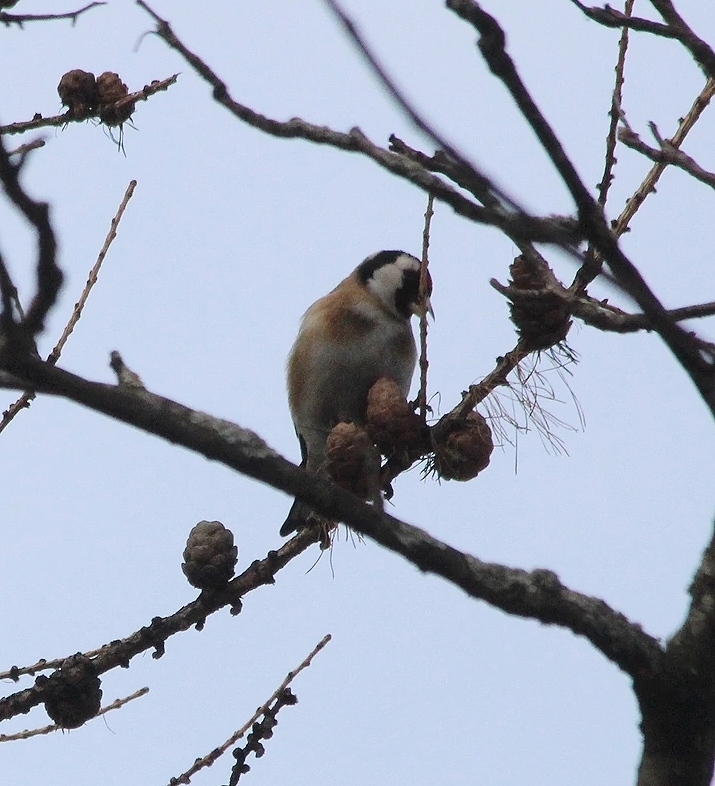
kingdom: Animalia
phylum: Chordata
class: Aves
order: Passeriformes
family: Fringillidae
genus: Carduelis
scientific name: Carduelis carduelis
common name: European goldfinch
